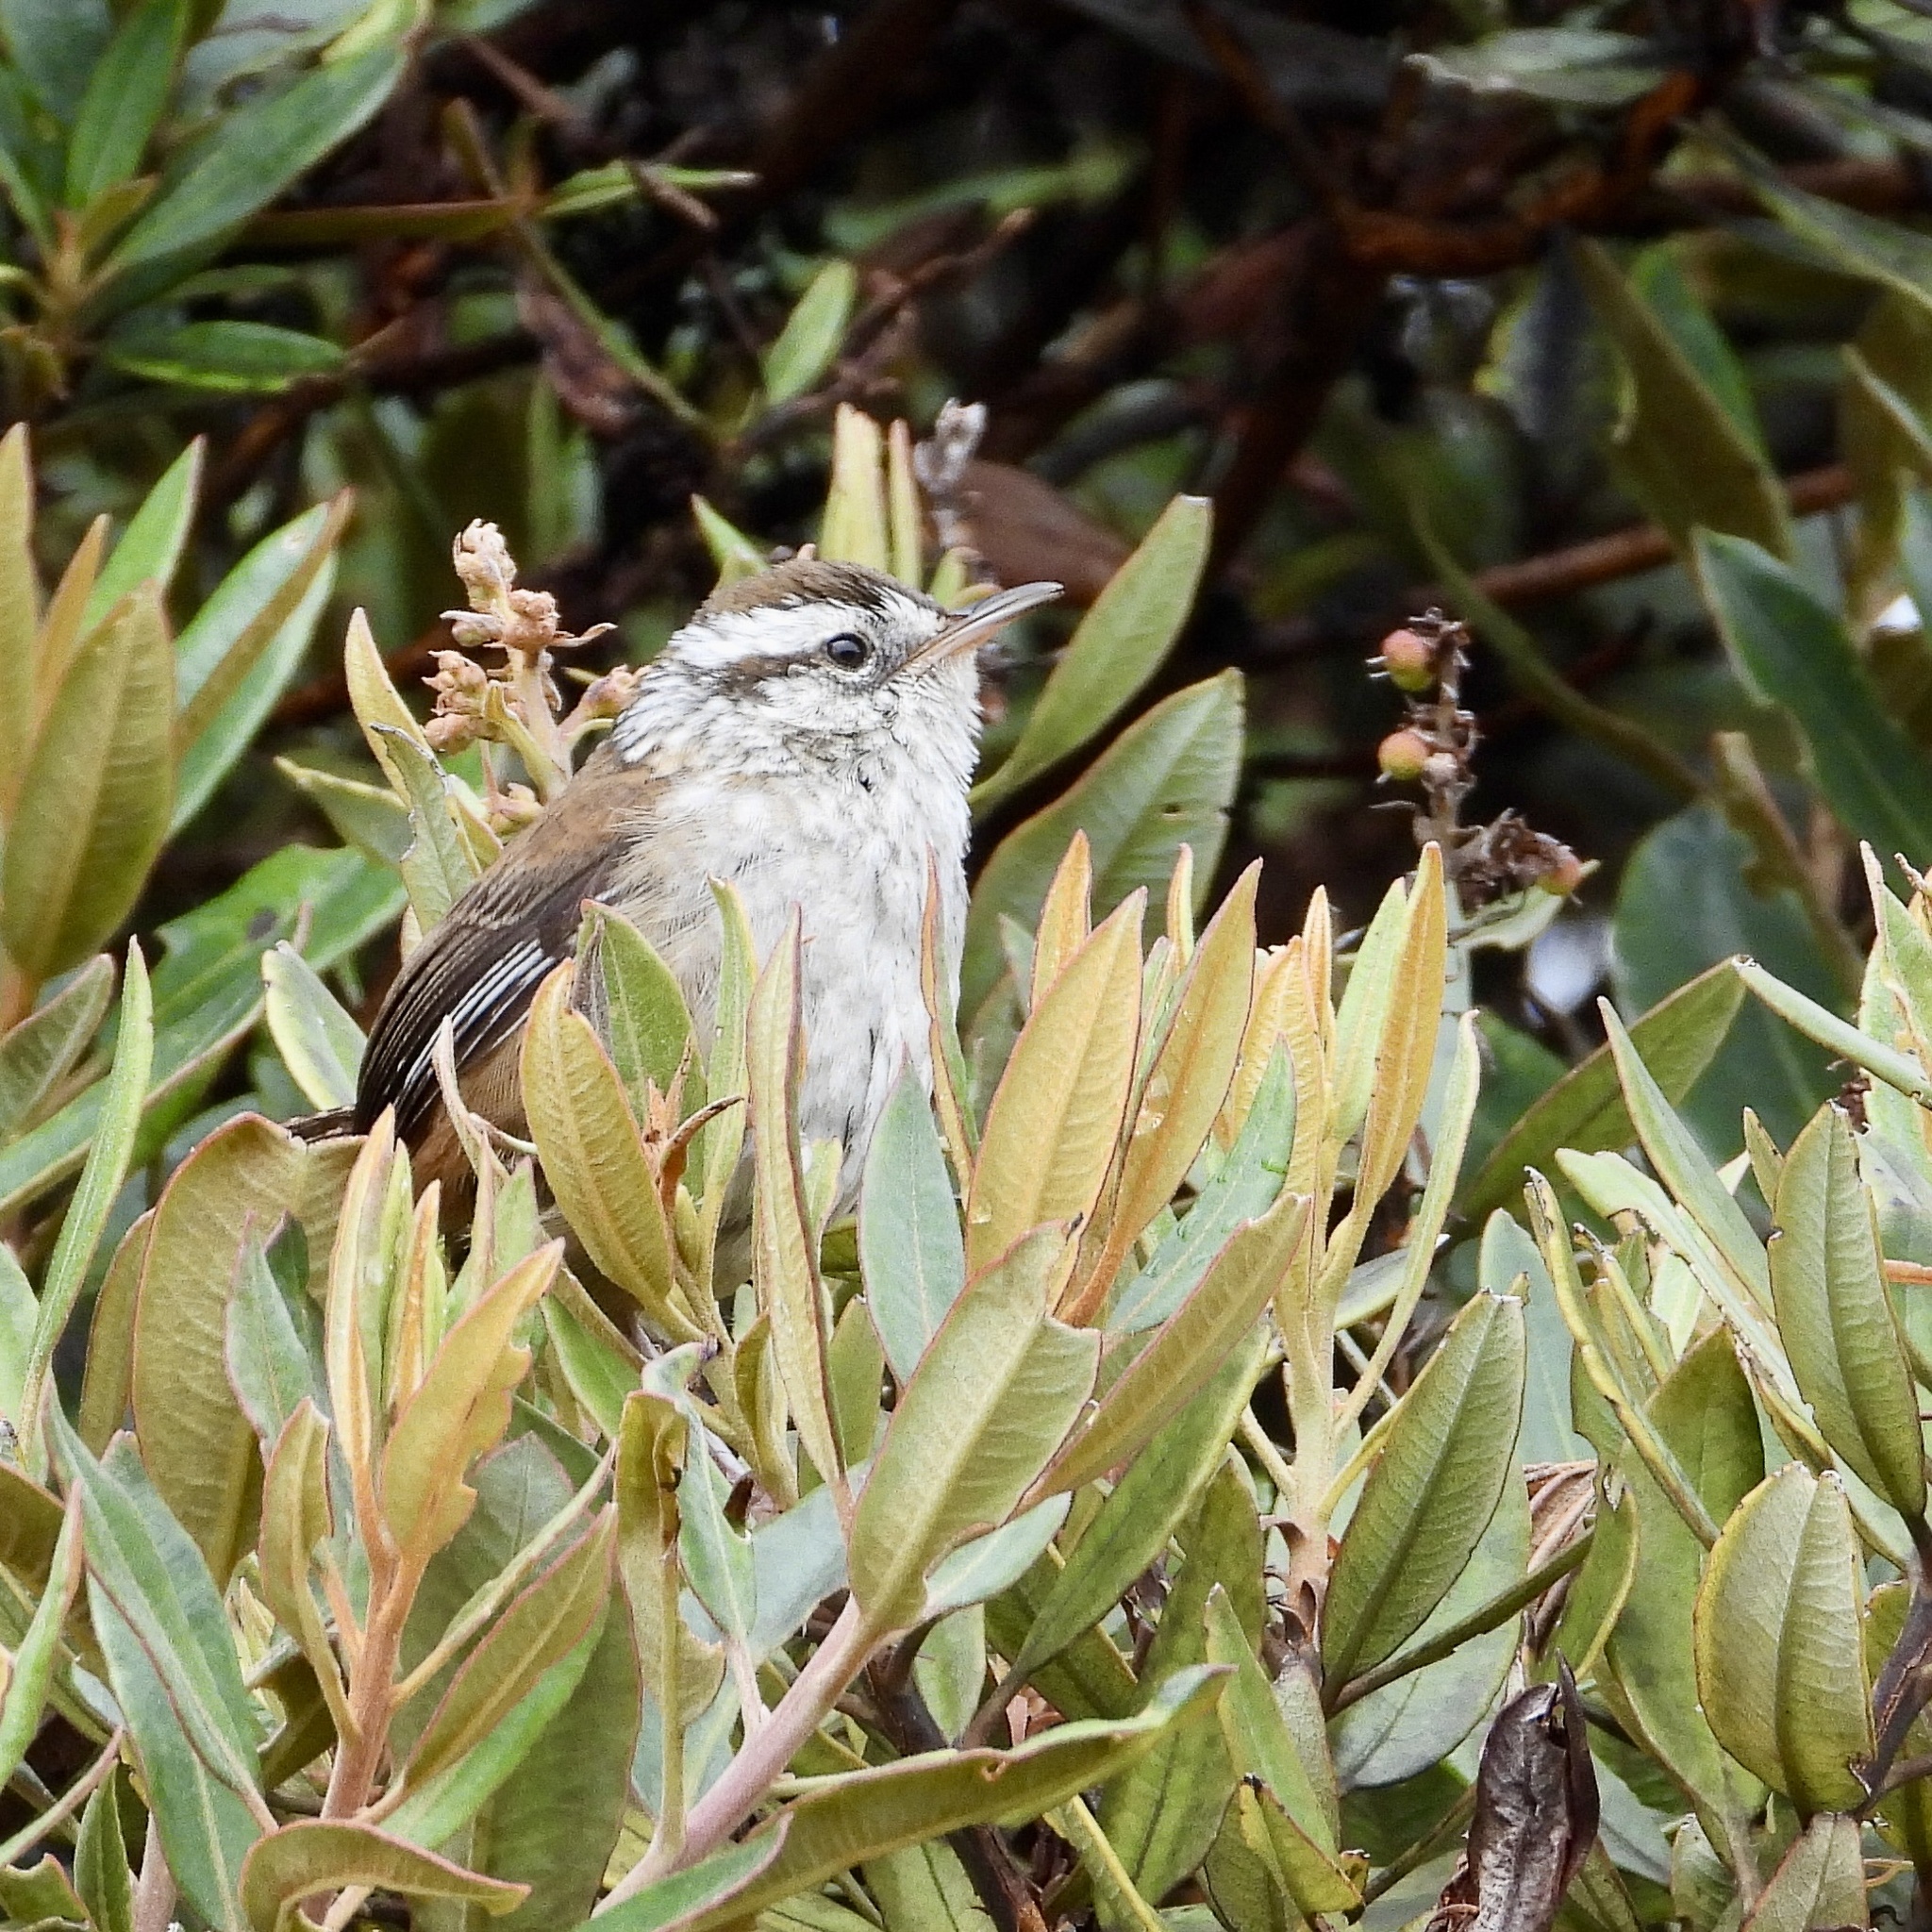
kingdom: Animalia
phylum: Chordata
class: Aves
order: Passeriformes
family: Troglodytidae
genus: Thryorchilus
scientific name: Thryorchilus browni
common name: Timberline wren
